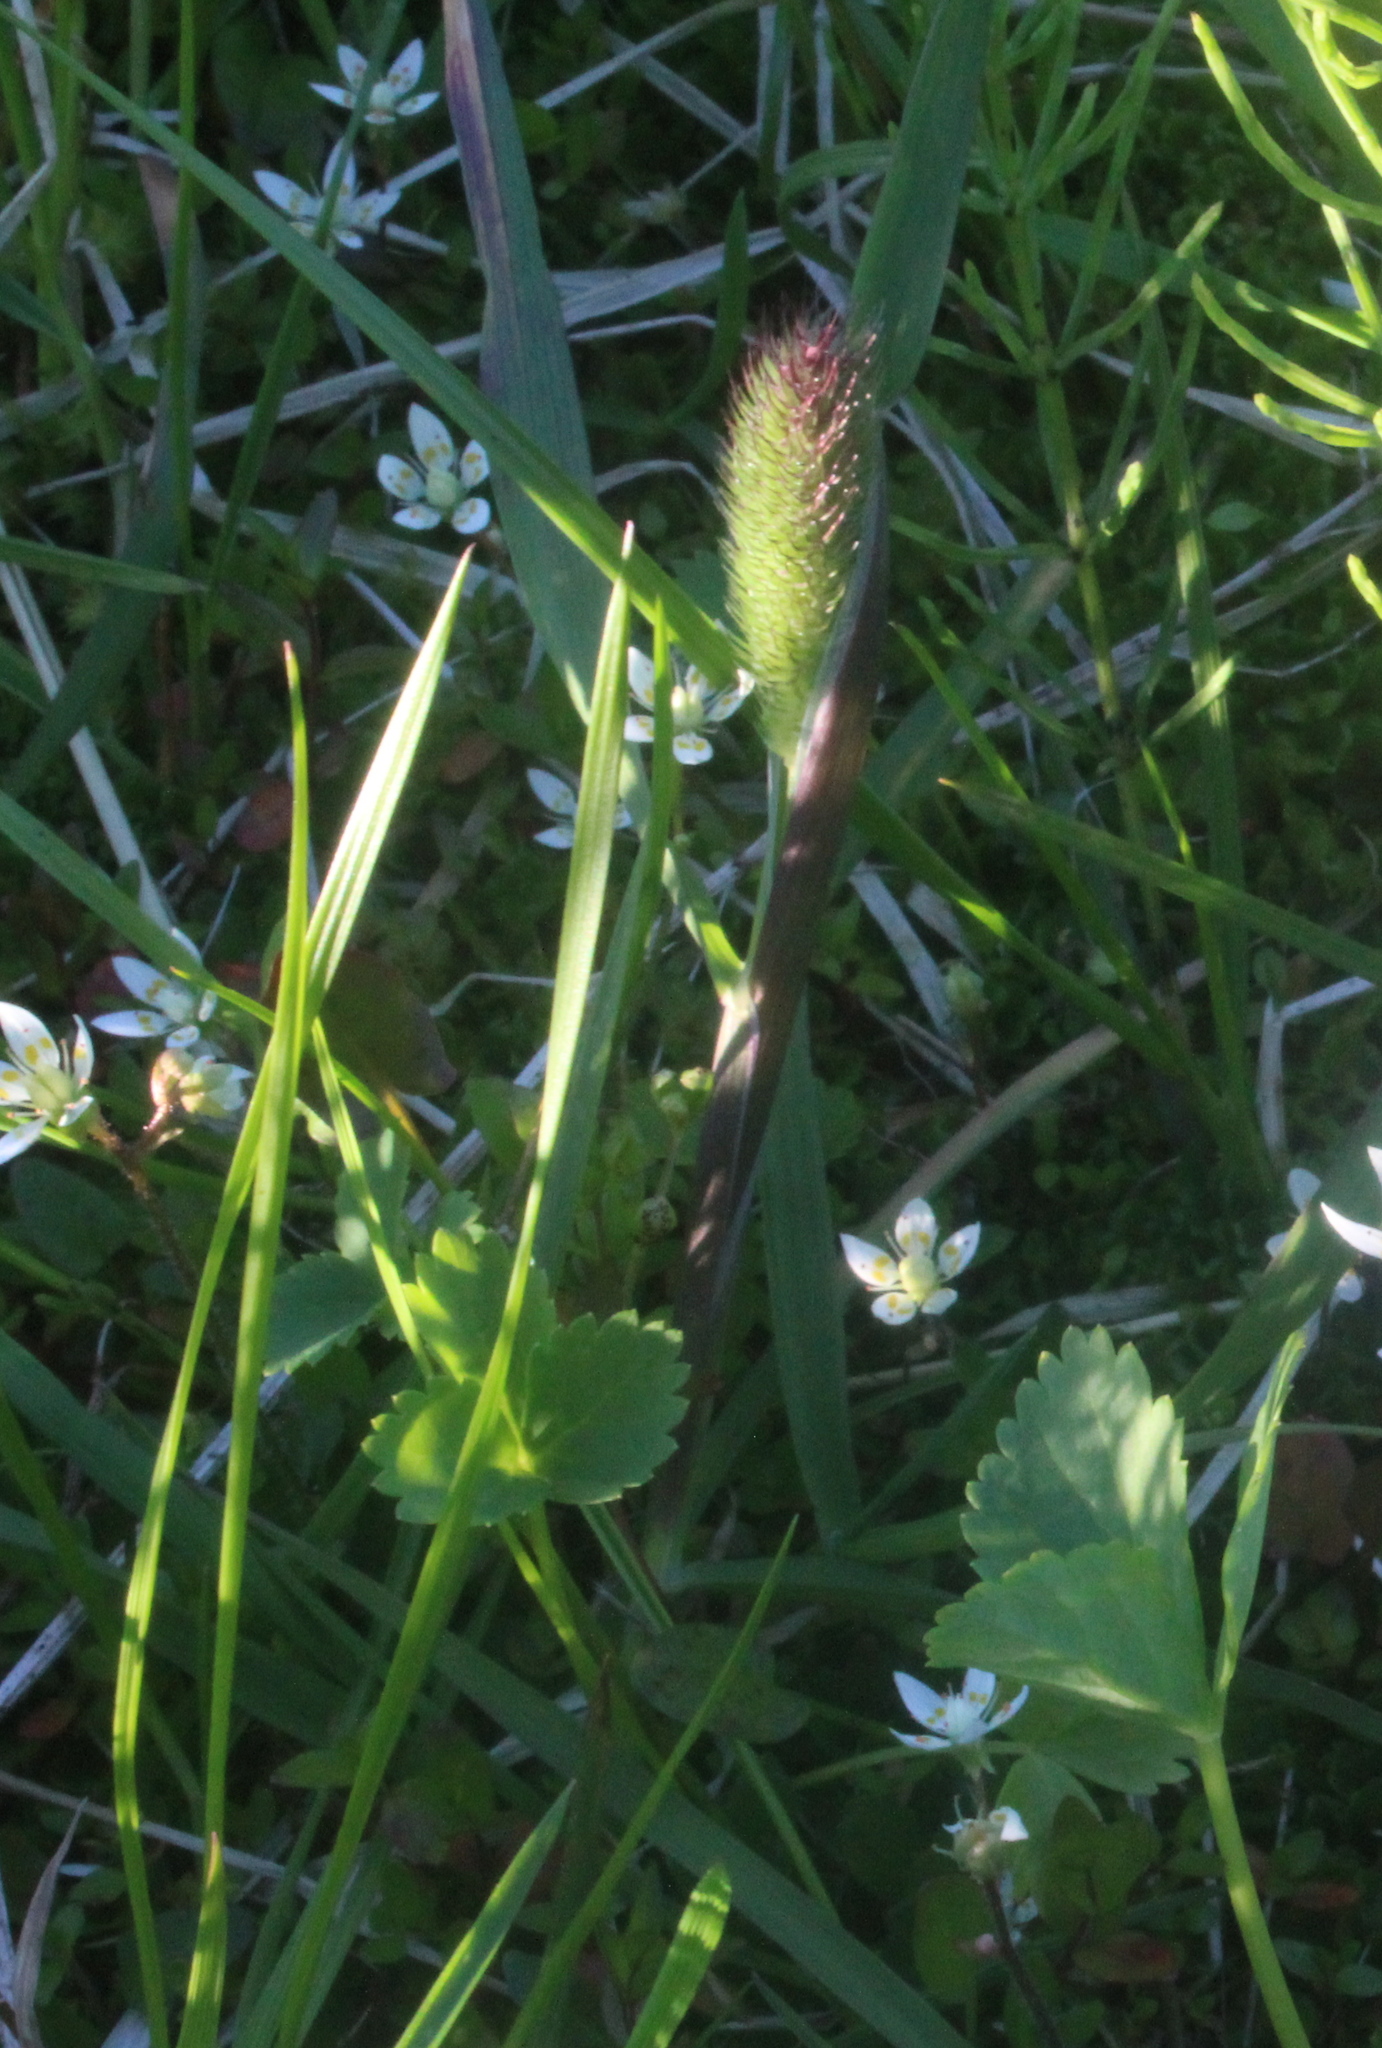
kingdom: Plantae
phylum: Tracheophyta
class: Liliopsida
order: Poales
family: Poaceae
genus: Phleum
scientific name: Phleum alpinum
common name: Alpine cat's-tail
